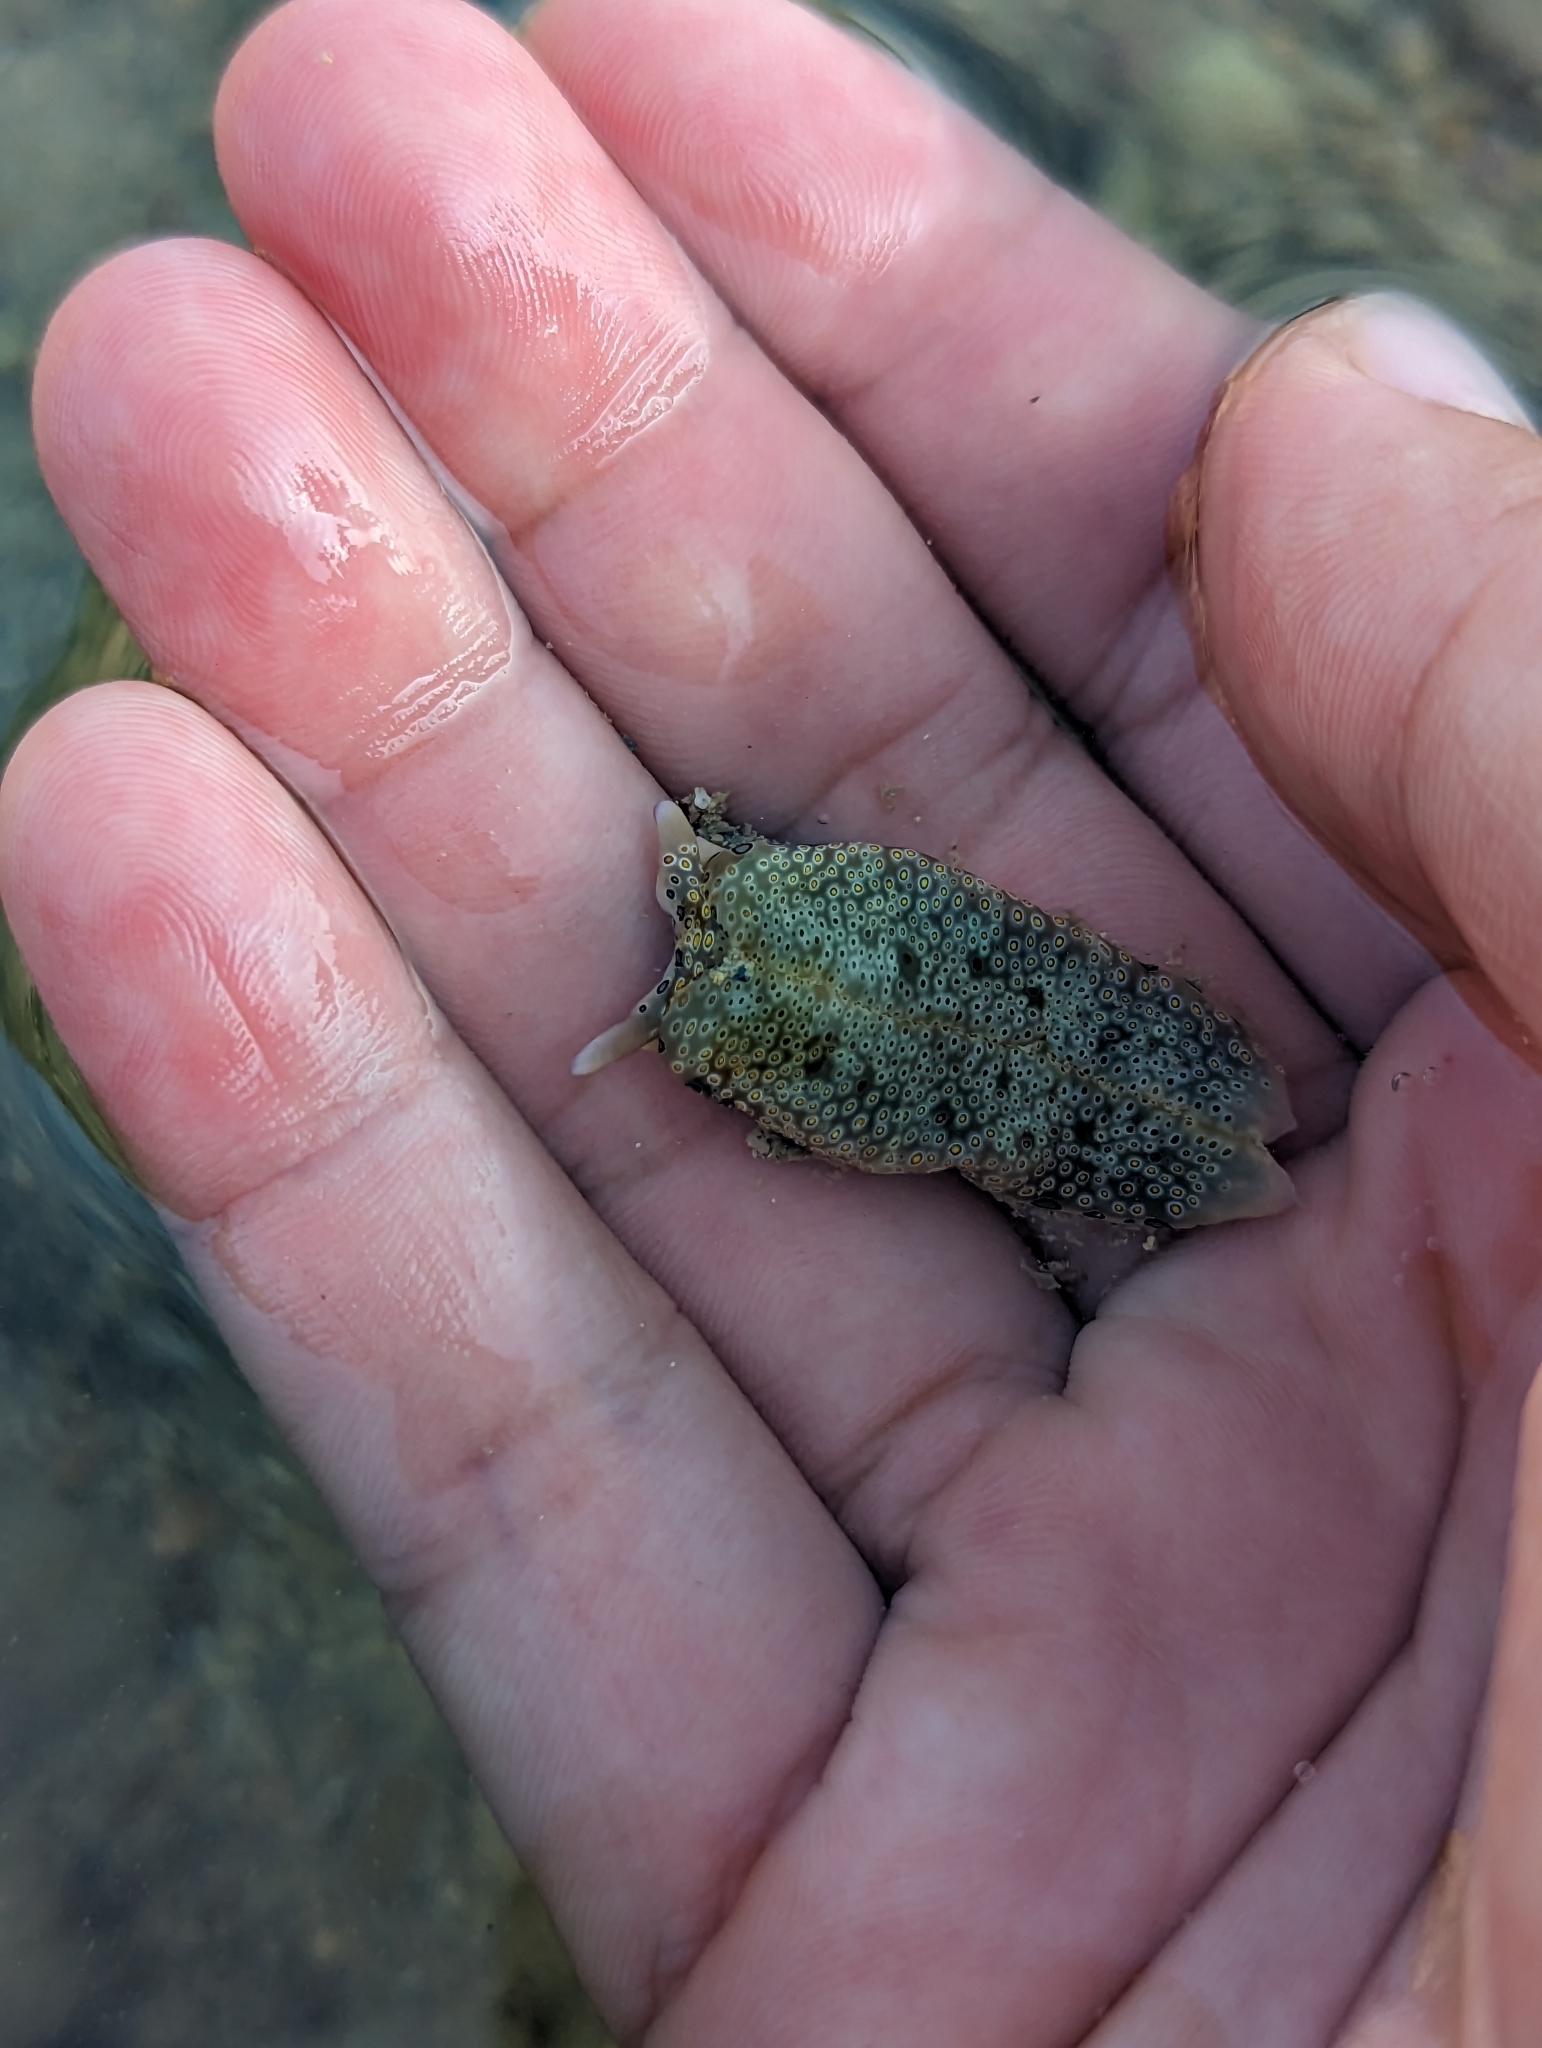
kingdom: Animalia
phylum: Mollusca
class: Gastropoda
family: Plakobranchidae
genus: Plakobranchus
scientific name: Plakobranchus ocellatus
